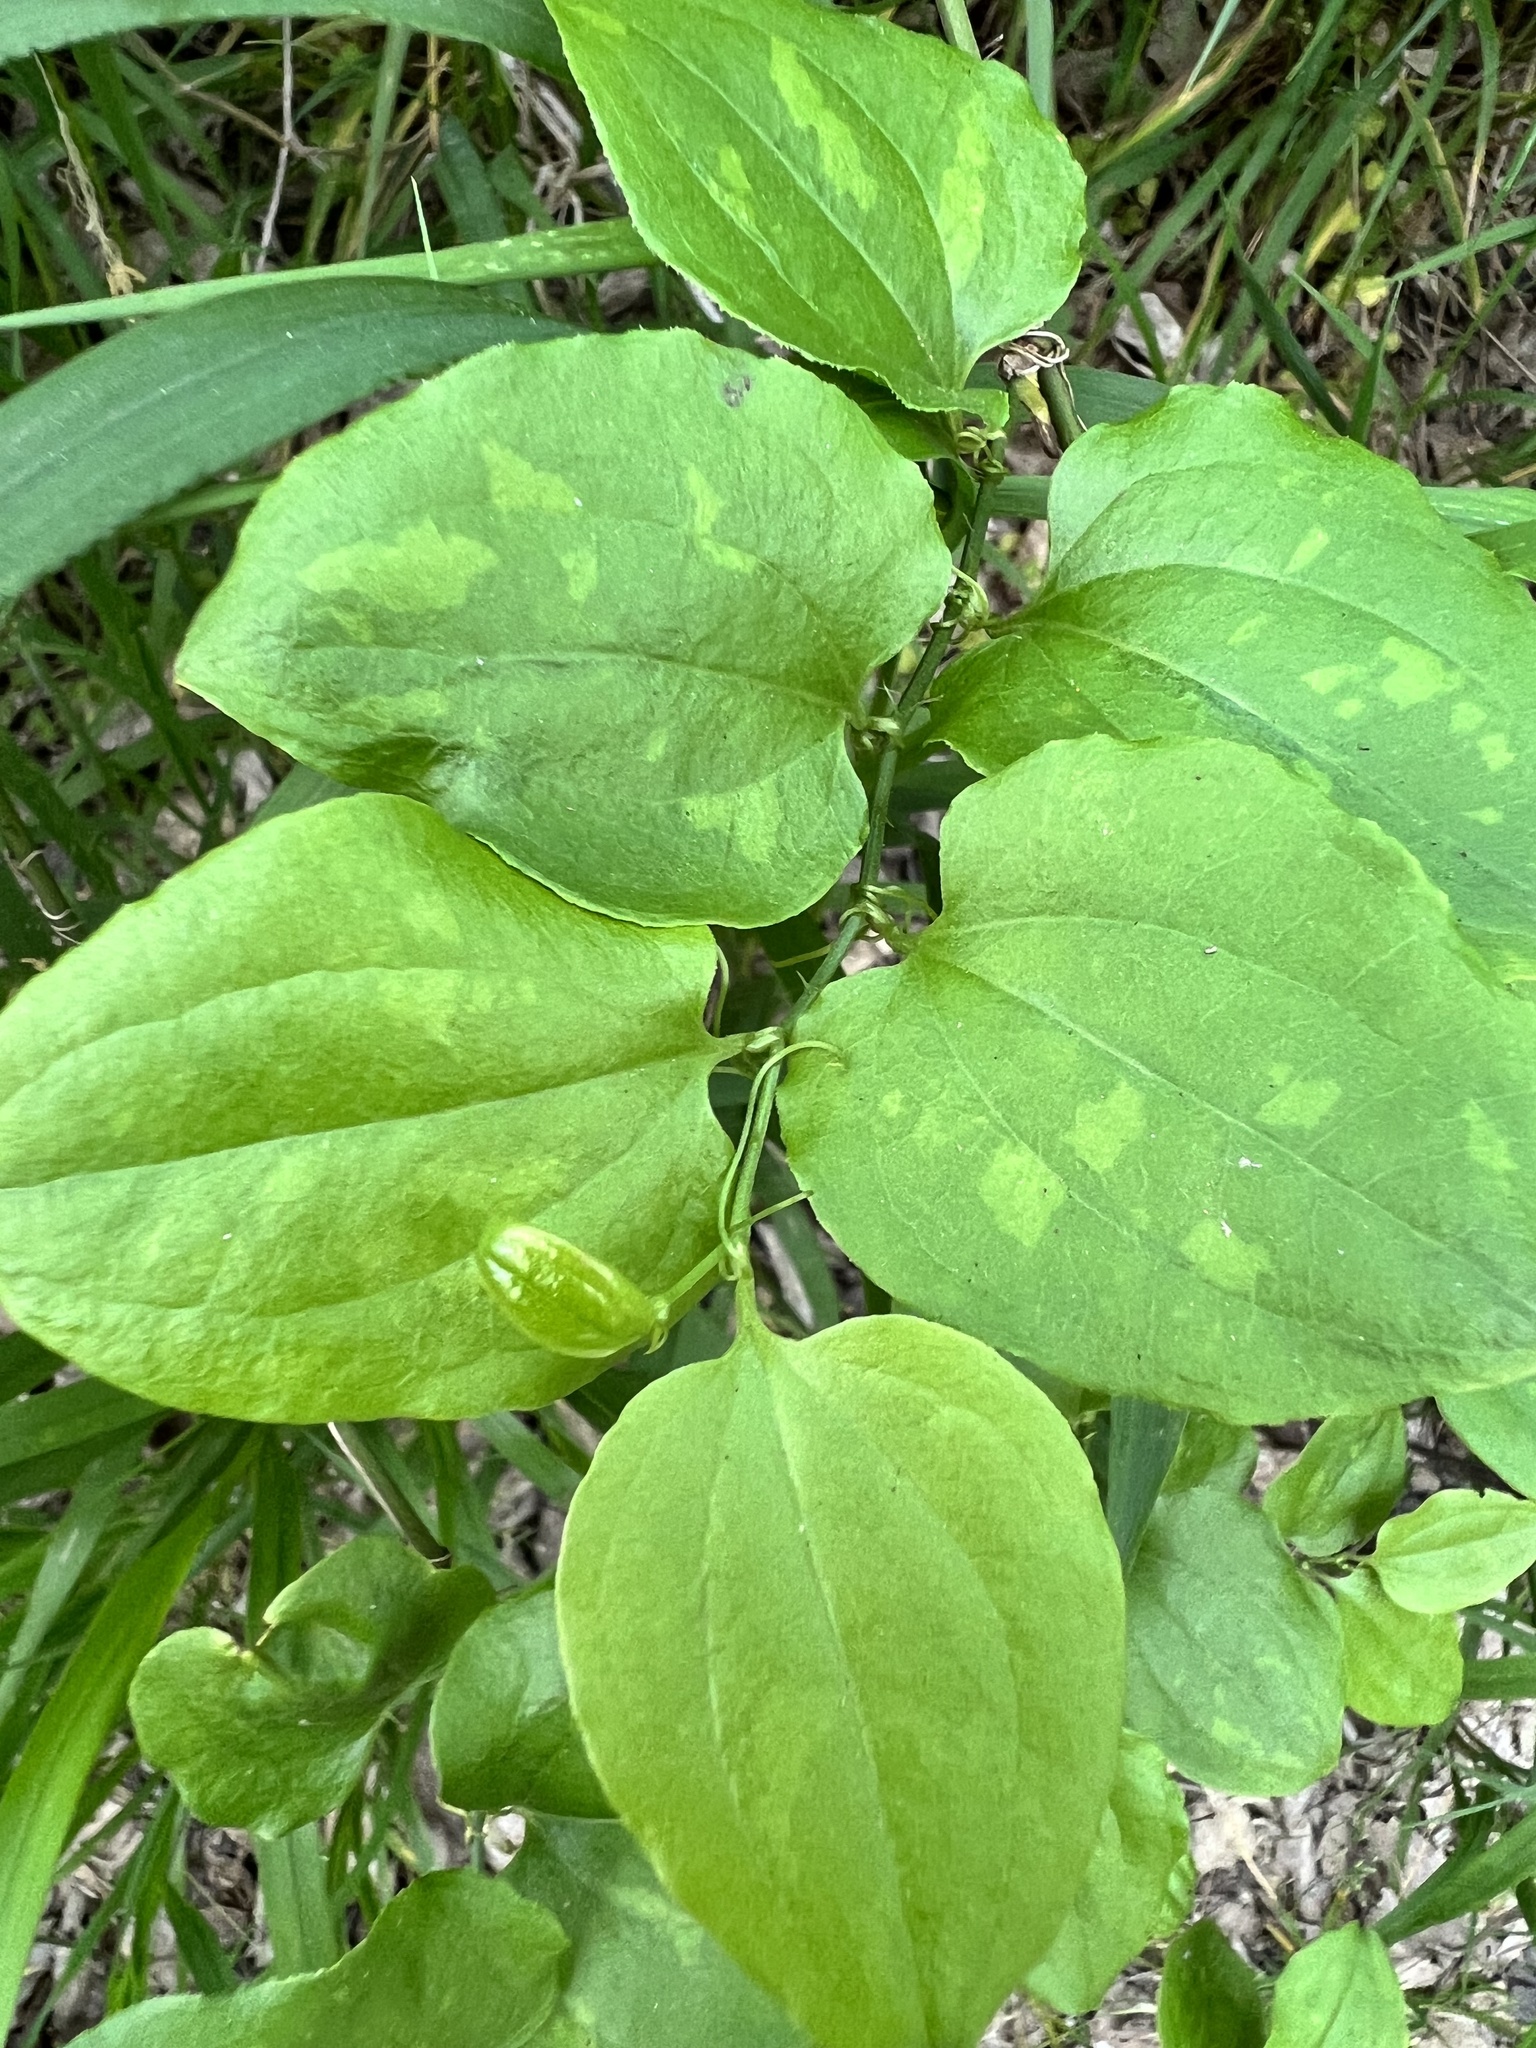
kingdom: Plantae
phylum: Tracheophyta
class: Liliopsida
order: Liliales
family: Smilacaceae
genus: Smilax
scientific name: Smilax tamnoides
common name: Hellfetter
